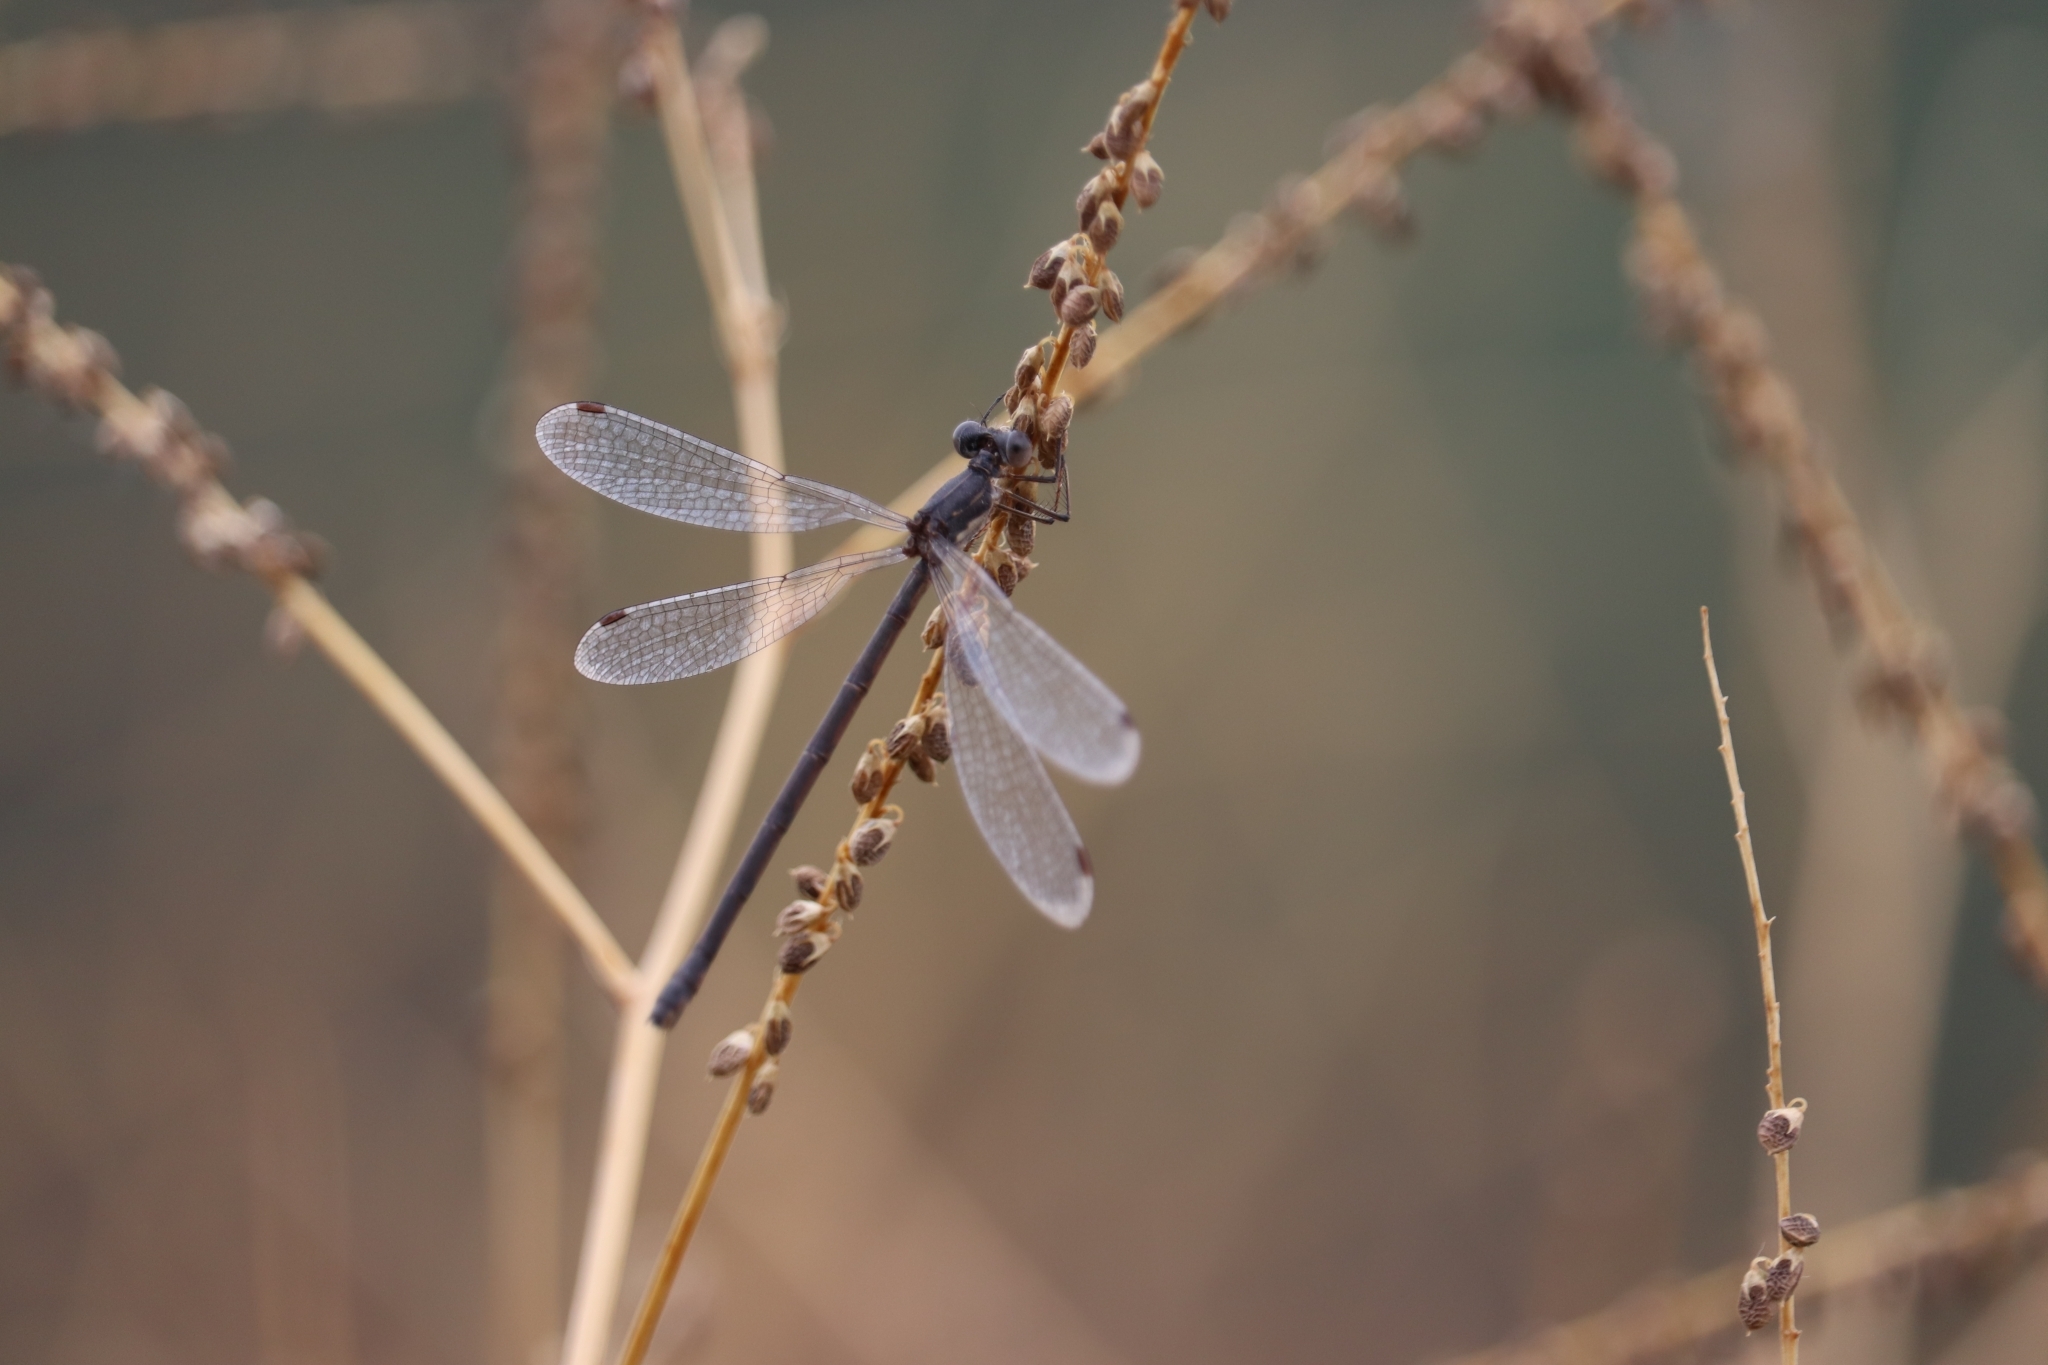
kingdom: Animalia
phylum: Arthropoda
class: Insecta
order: Odonata
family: Lestidae
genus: Lestes
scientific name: Lestes congener
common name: Spotted spreadwing
